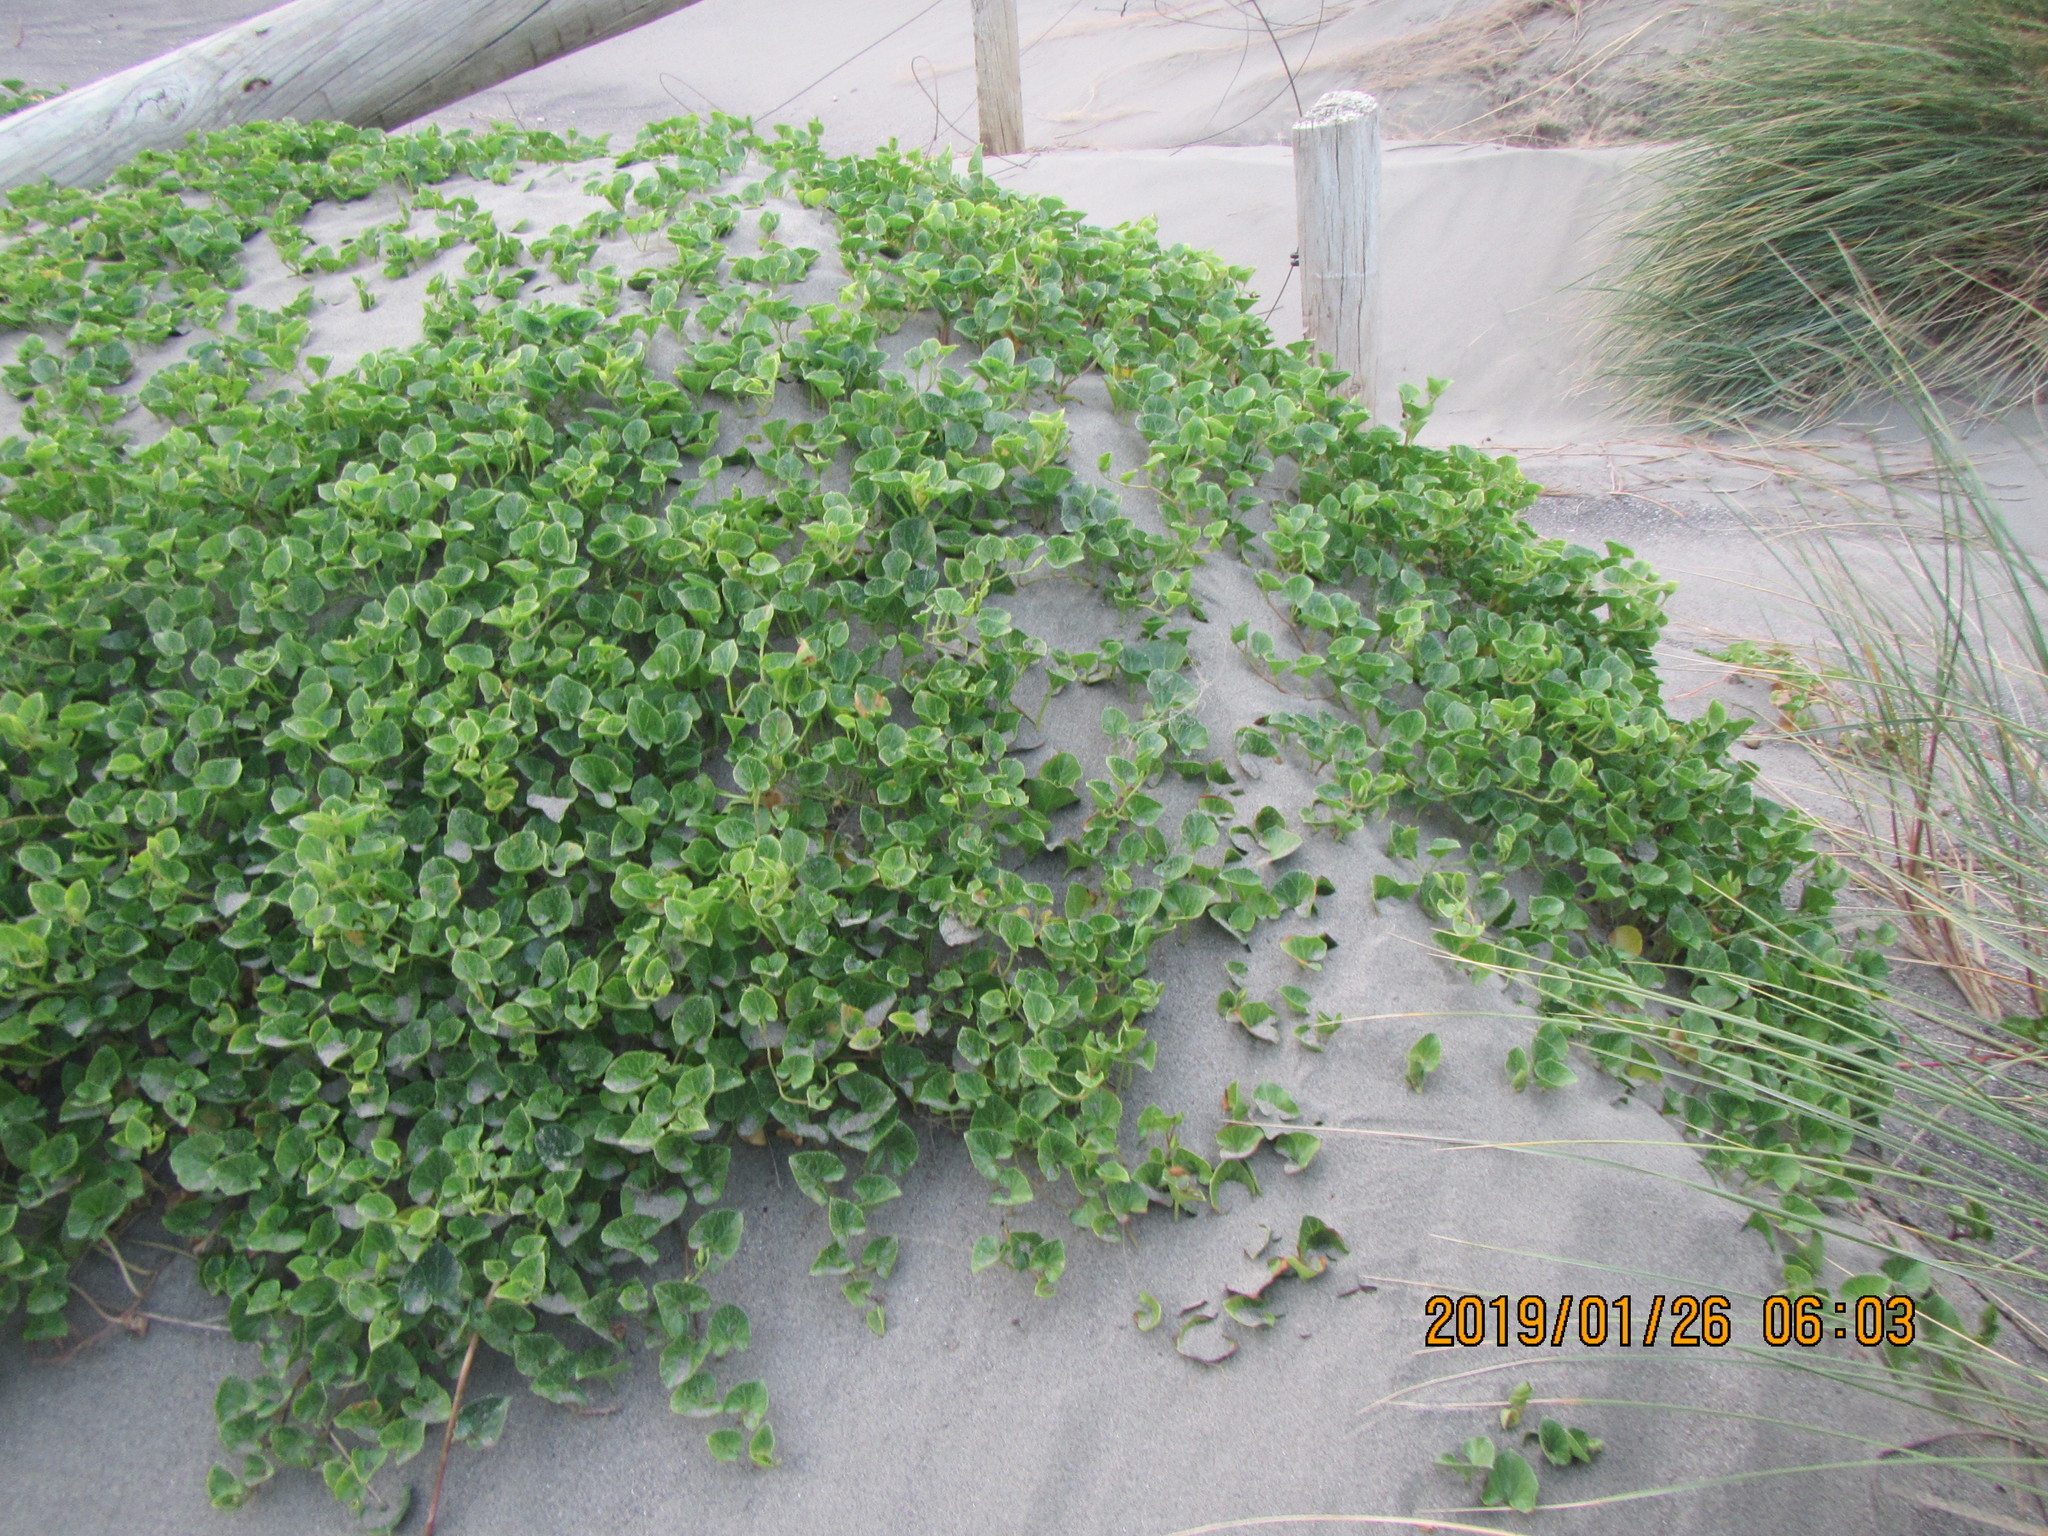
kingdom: Plantae
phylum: Tracheophyta
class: Magnoliopsida
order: Solanales
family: Convolvulaceae
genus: Calystegia
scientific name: Calystegia soldanella
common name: Sea bindweed
